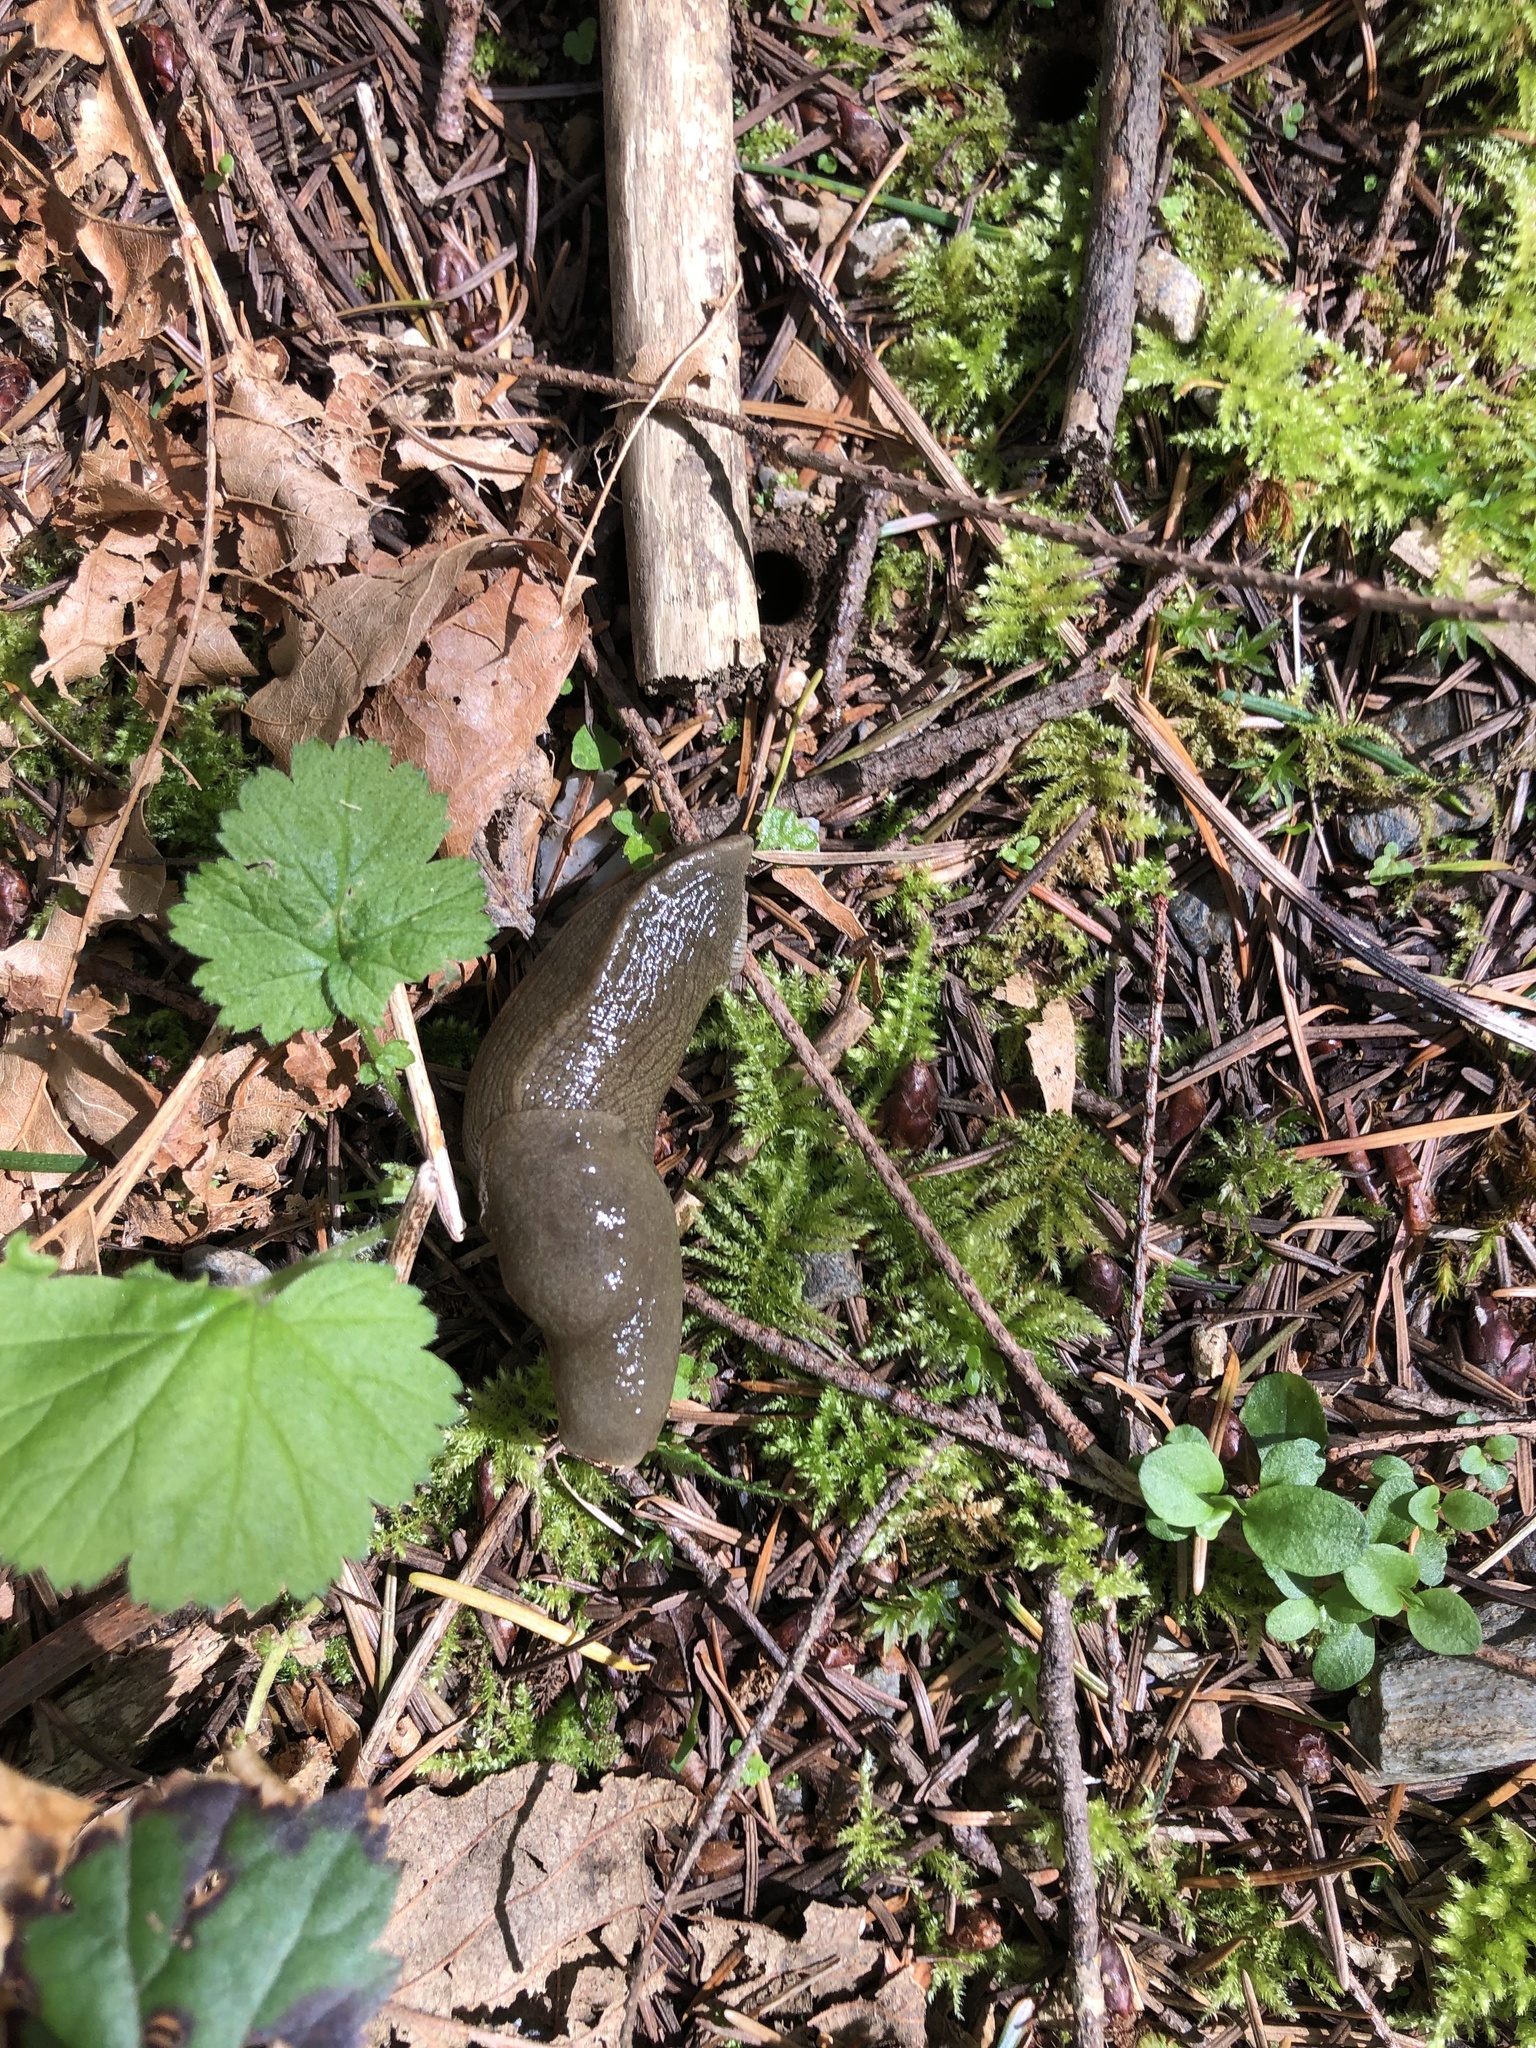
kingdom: Animalia
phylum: Mollusca
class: Gastropoda
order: Stylommatophora
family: Ariolimacidae
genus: Ariolimax
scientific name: Ariolimax columbianus
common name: Pacific banana slug
